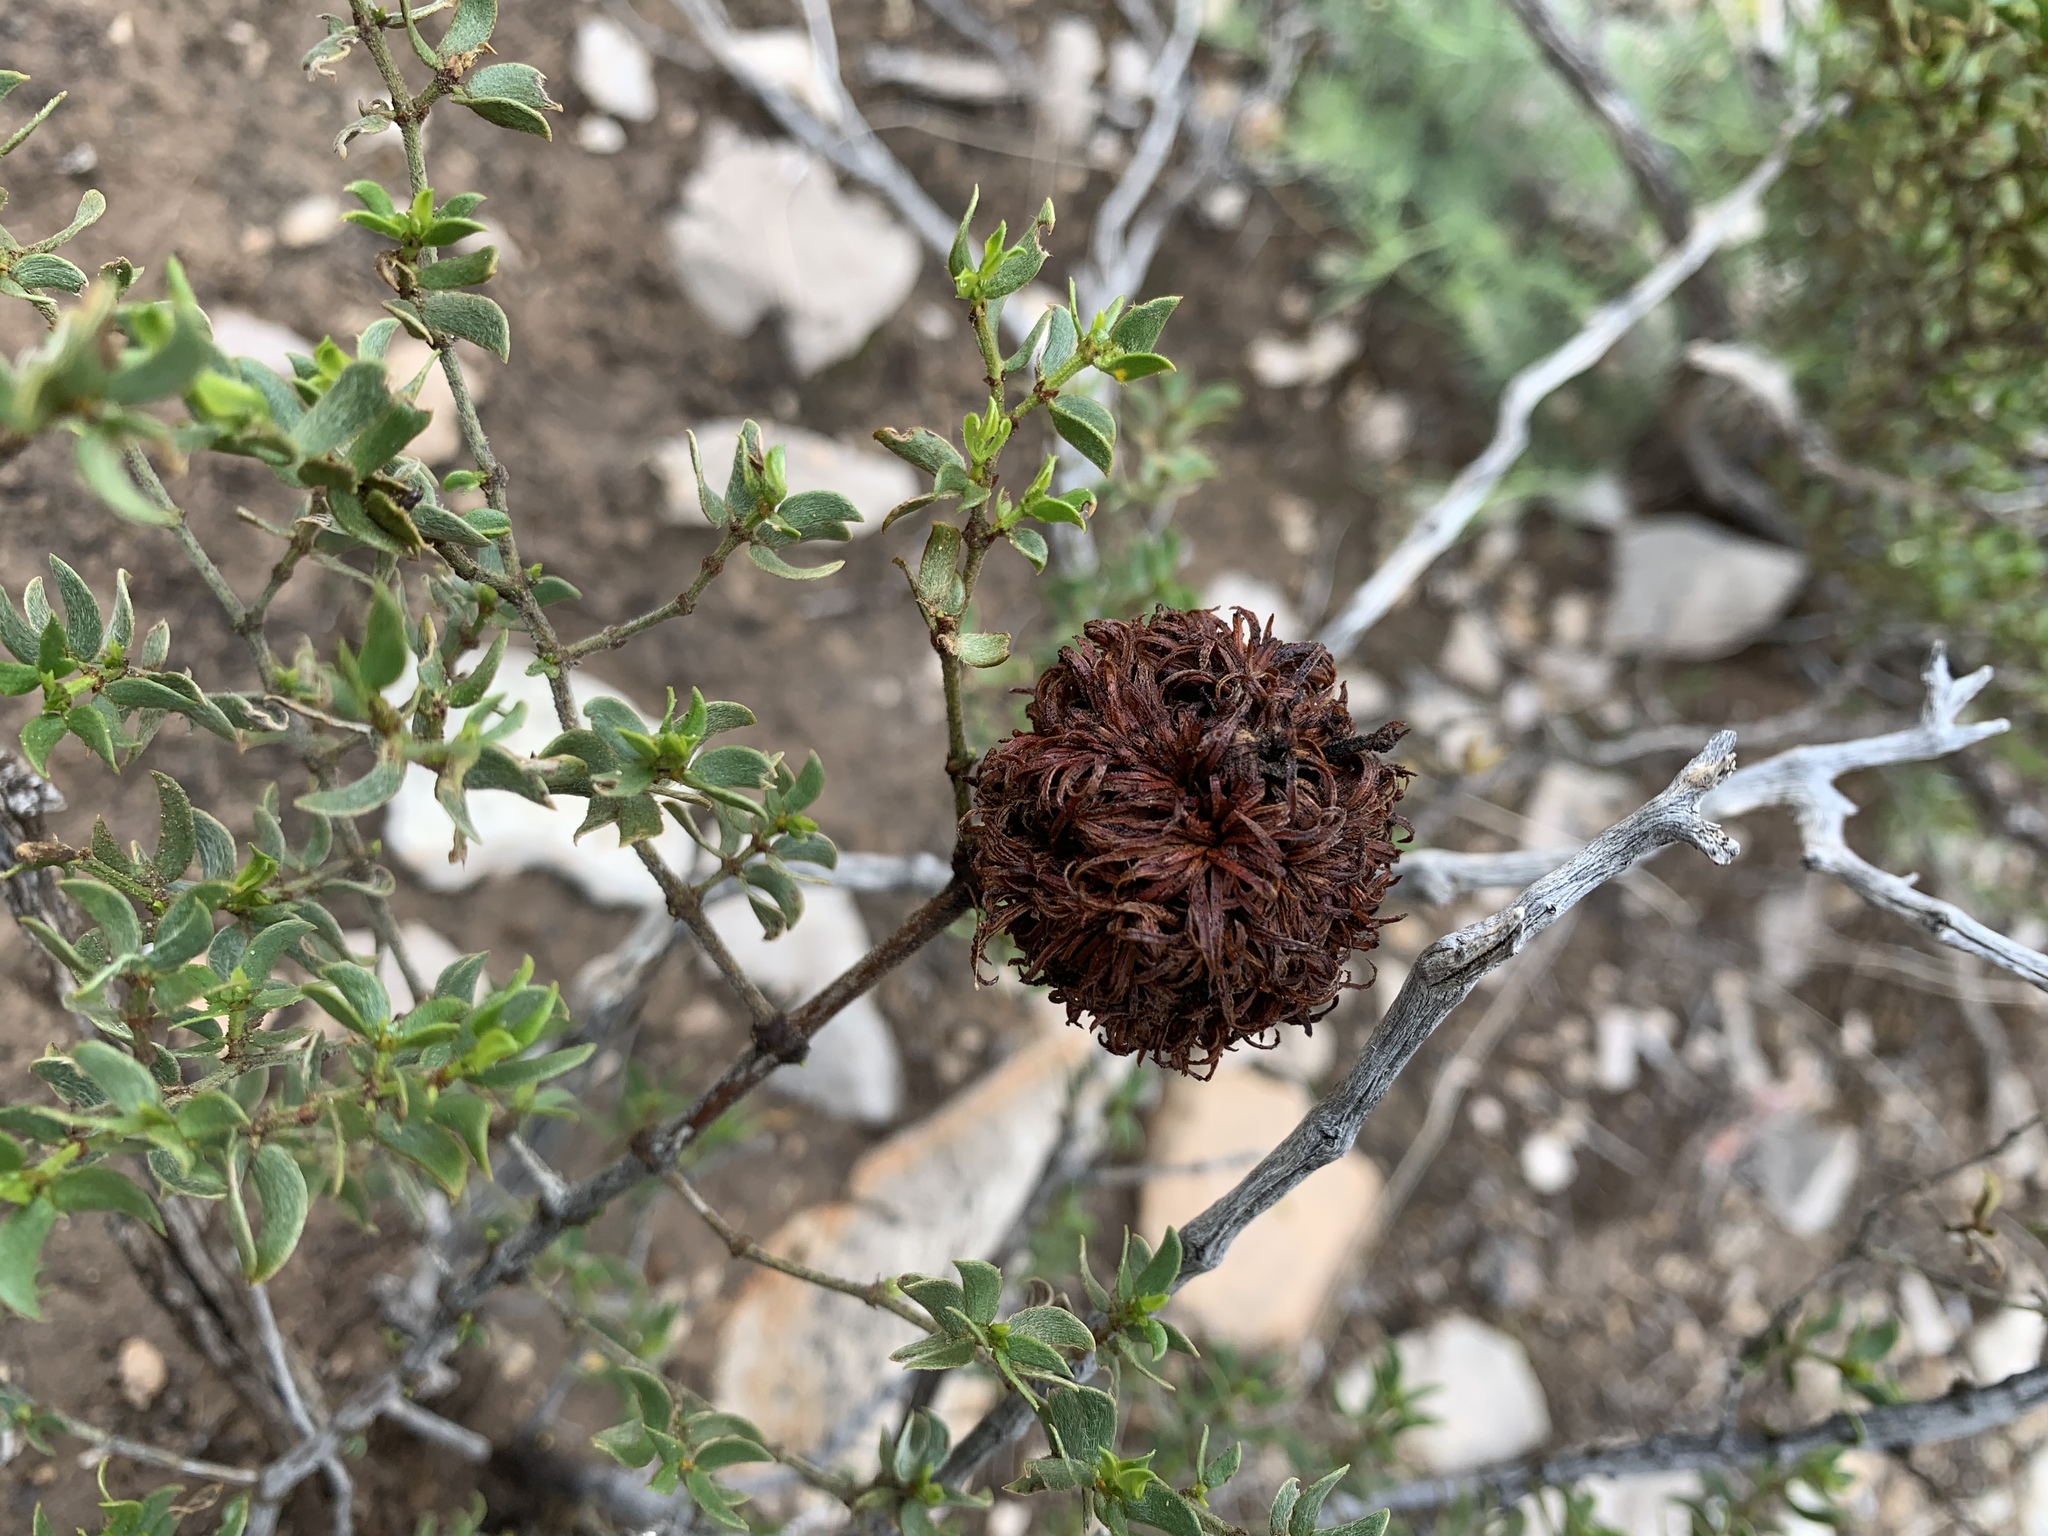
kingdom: Animalia
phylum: Arthropoda
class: Insecta
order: Diptera
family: Cecidomyiidae
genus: Asphondylia
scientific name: Asphondylia auripila
